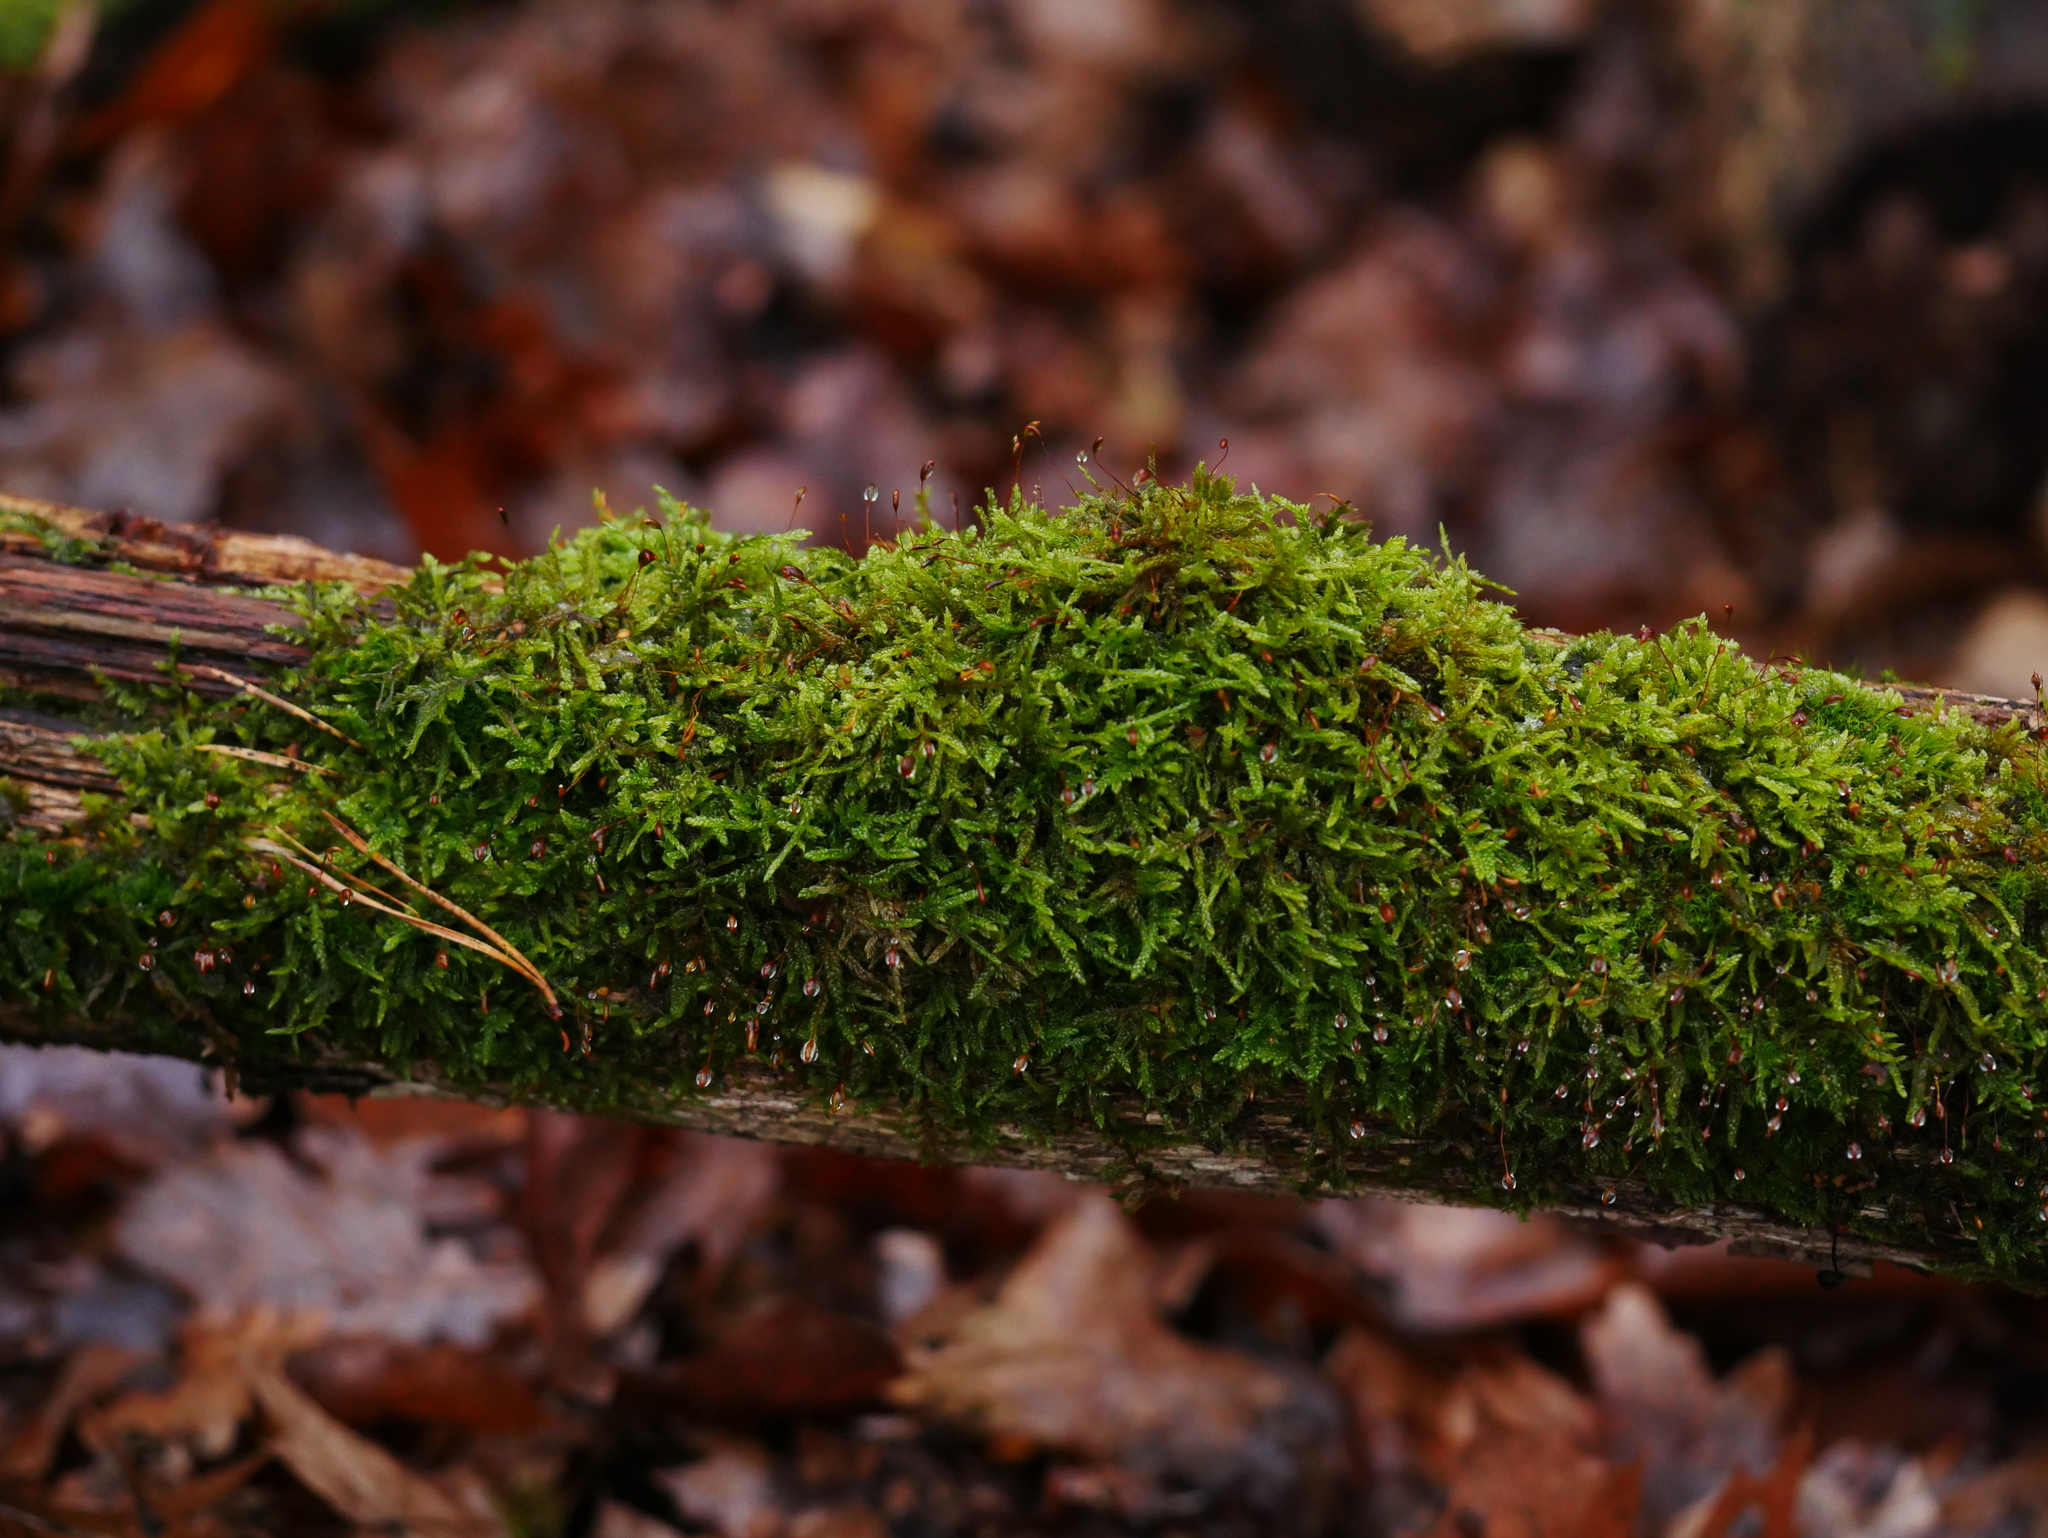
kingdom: Plantae
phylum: Bryophyta
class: Bryopsida
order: Hypnales
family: Hypnaceae
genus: Hypnum
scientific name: Hypnum cupressiforme
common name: Cypress-leaved plait-moss
